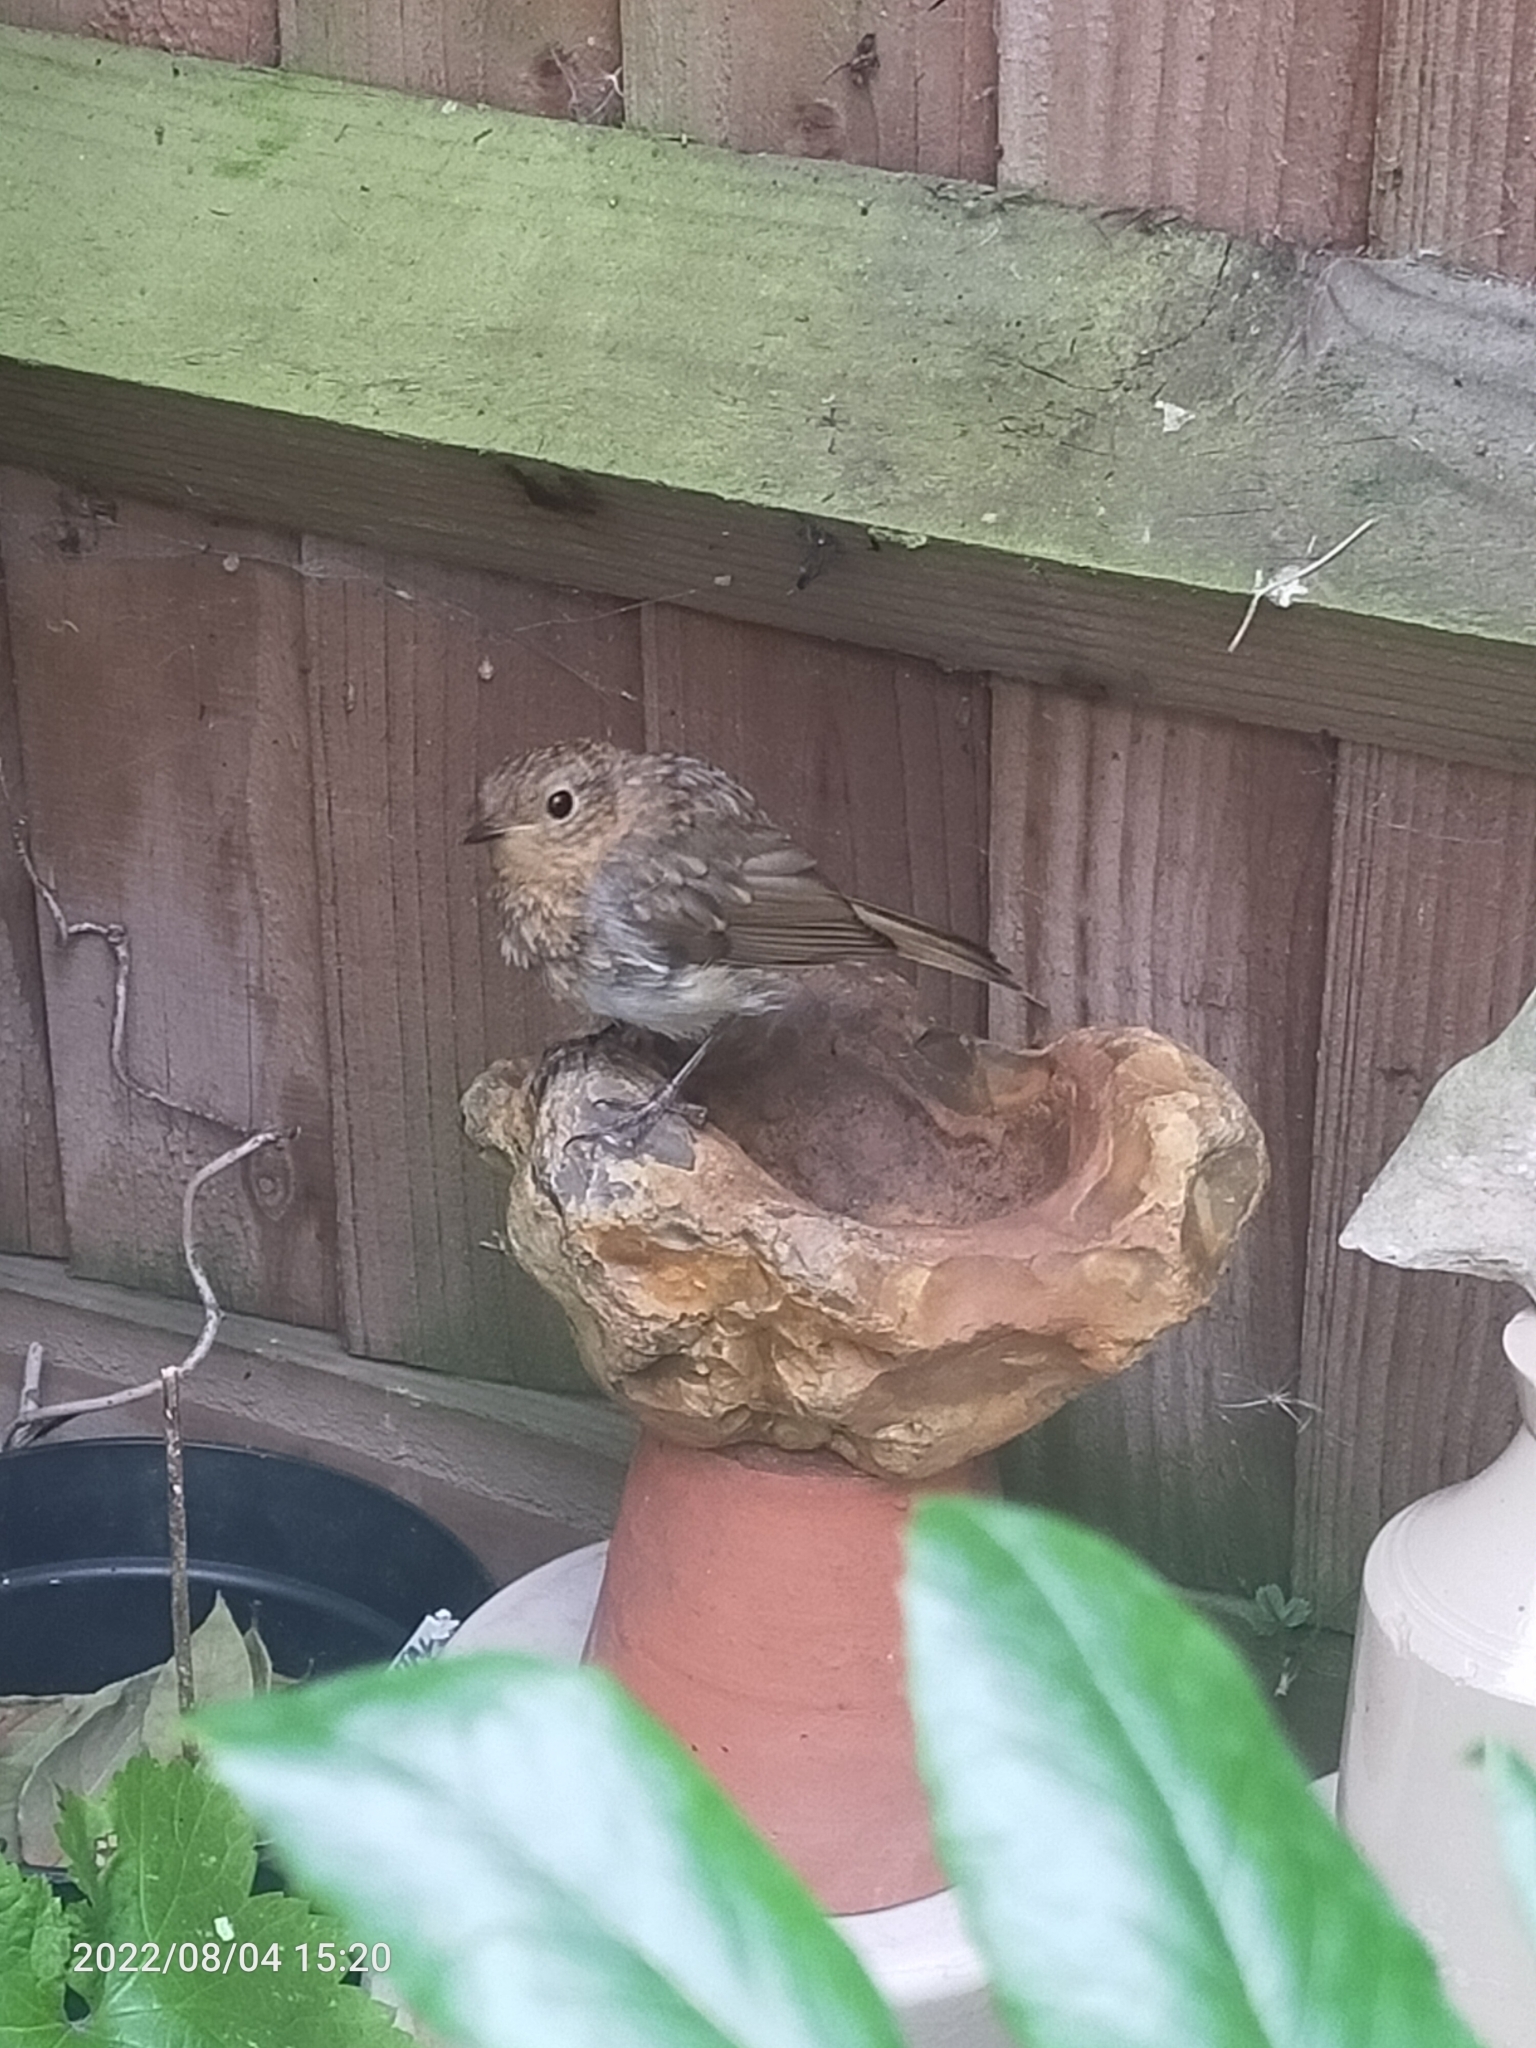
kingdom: Animalia
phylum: Chordata
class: Aves
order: Passeriformes
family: Muscicapidae
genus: Erithacus
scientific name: Erithacus rubecula
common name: European robin
